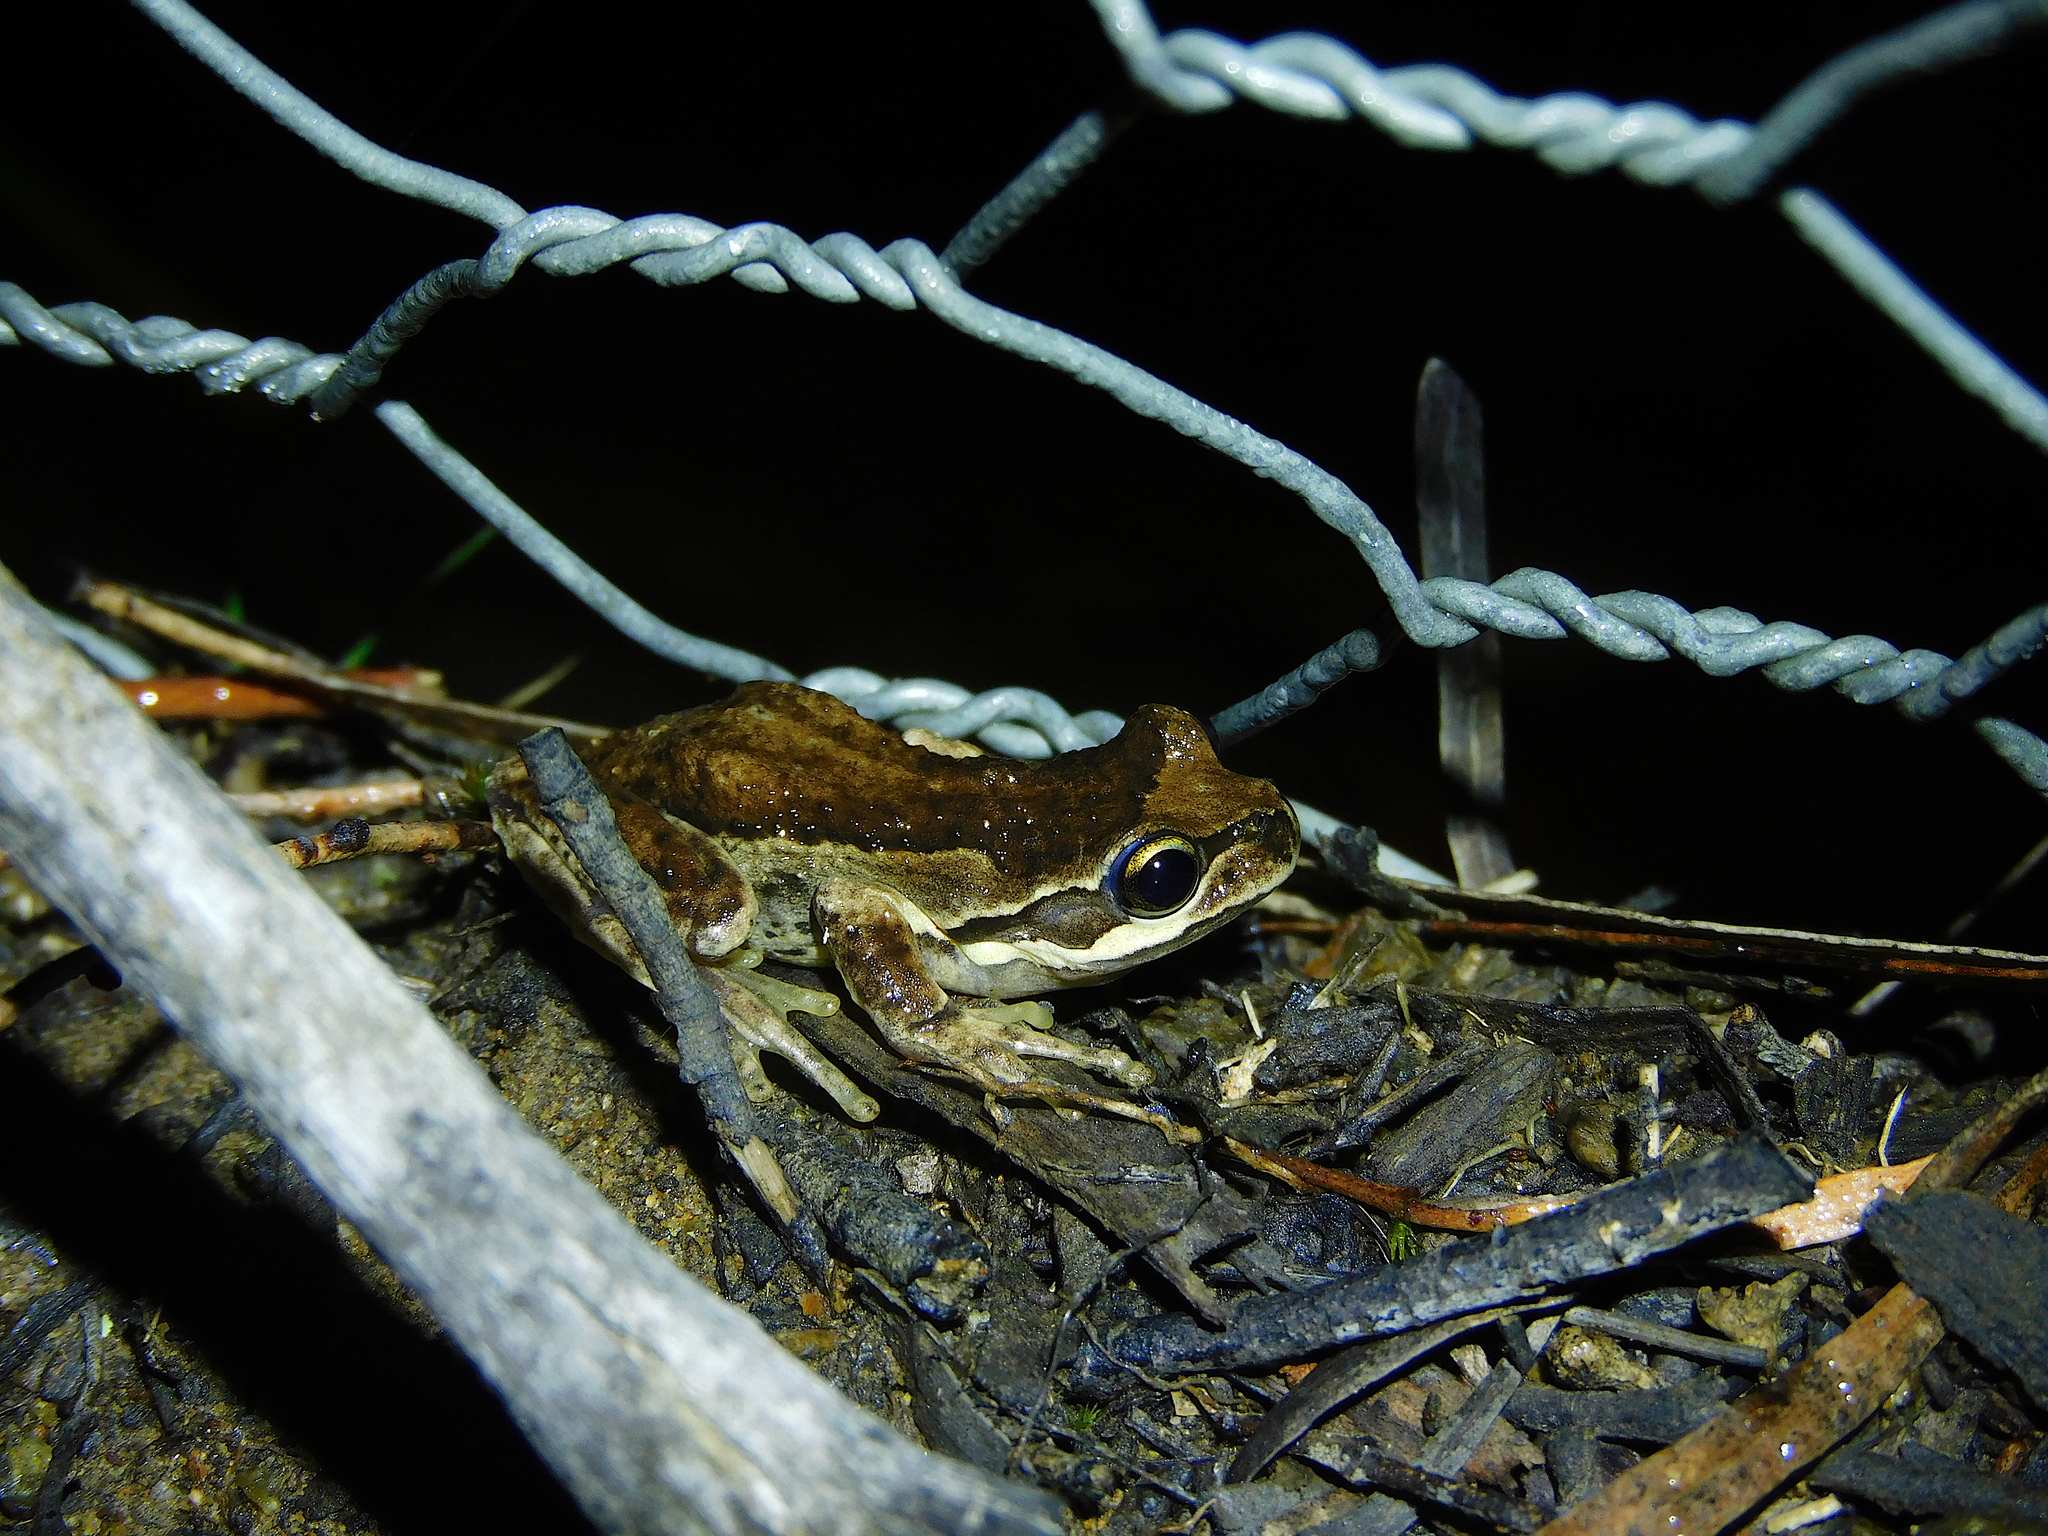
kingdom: Animalia
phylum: Chordata
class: Amphibia
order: Anura
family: Pelodryadidae
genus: Litoria
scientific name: Litoria ewingii
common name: Southern brown tree frog
